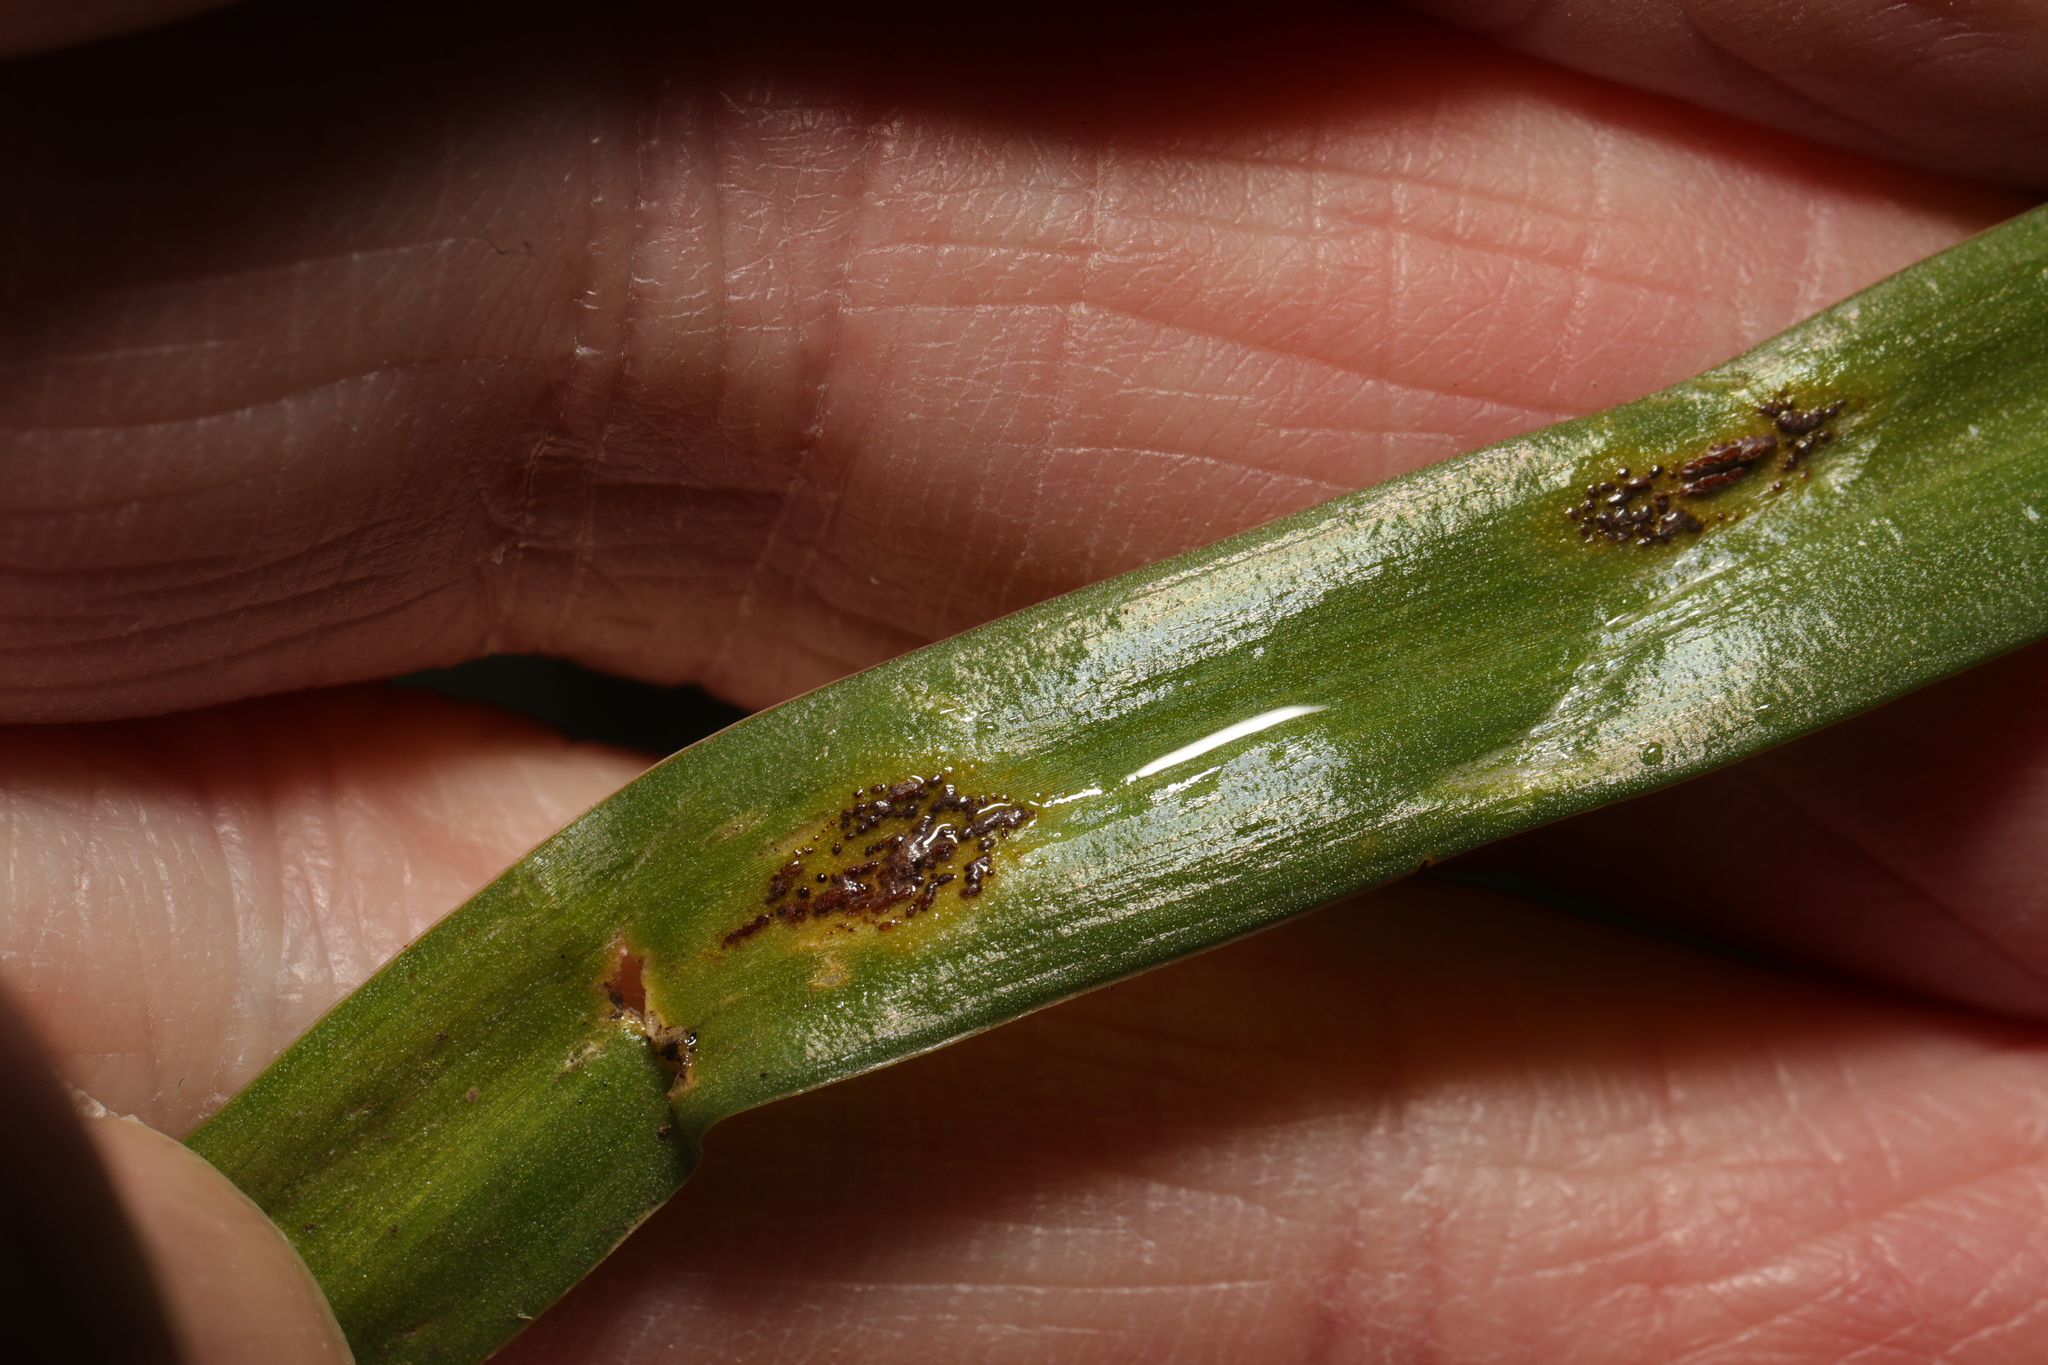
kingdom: Fungi
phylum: Basidiomycota
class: Pucciniomycetes
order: Pucciniales
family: Pucciniaceae
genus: Uromyces
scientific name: Uromyces hyacinthi
